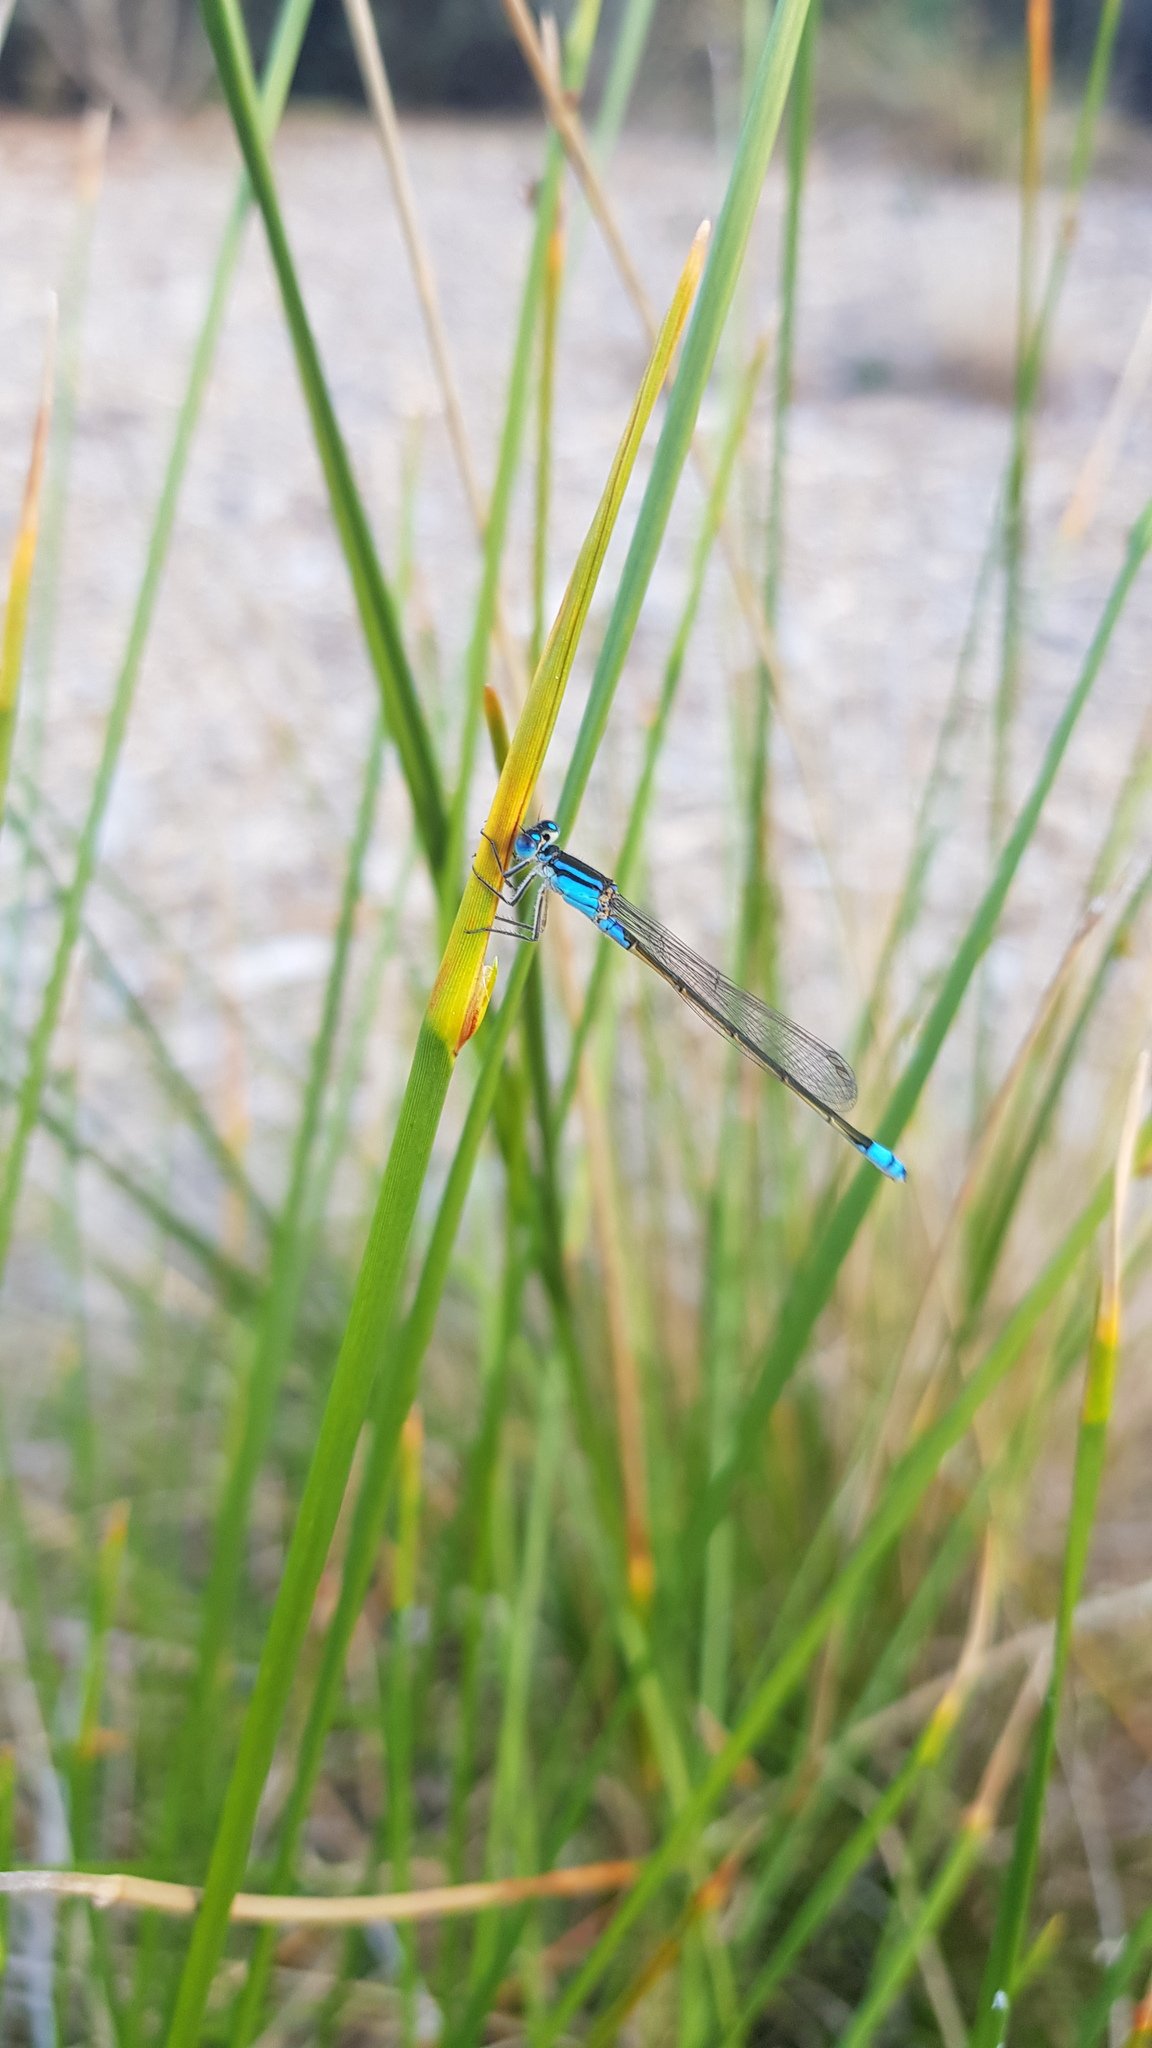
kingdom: Animalia
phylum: Arthropoda
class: Insecta
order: Odonata
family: Coenagrionidae
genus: Ischnura
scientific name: Ischnura heterosticta
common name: Common bluetail
